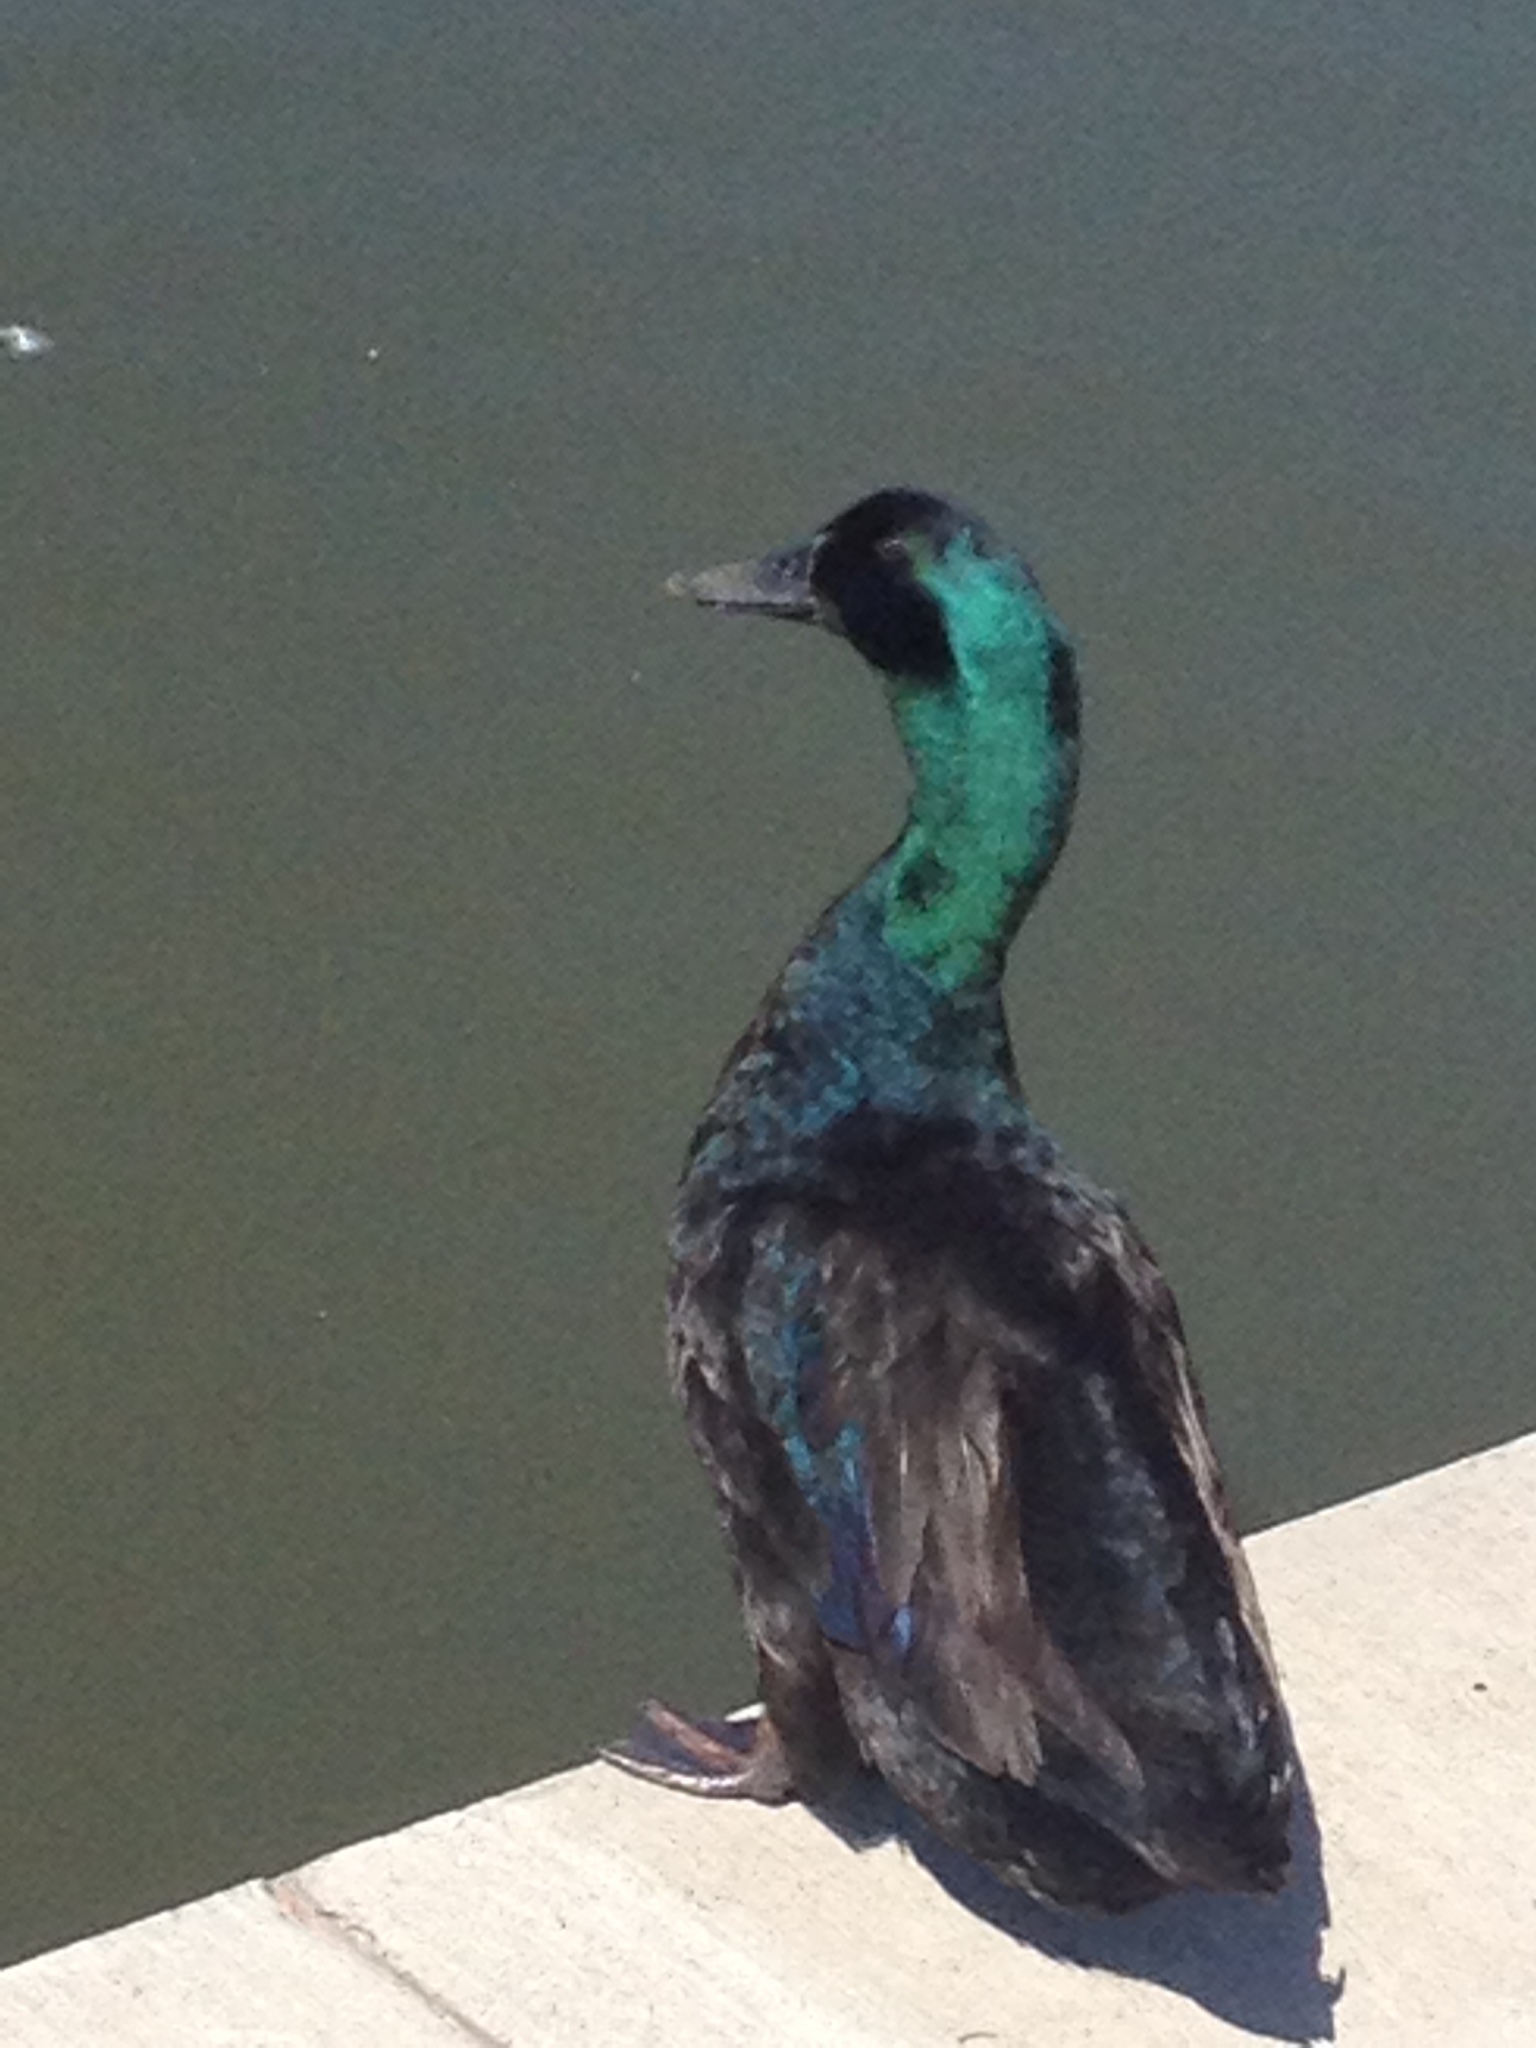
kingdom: Animalia
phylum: Chordata
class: Aves
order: Anseriformes
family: Anatidae
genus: Anas
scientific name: Anas platyrhynchos
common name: Mallard
